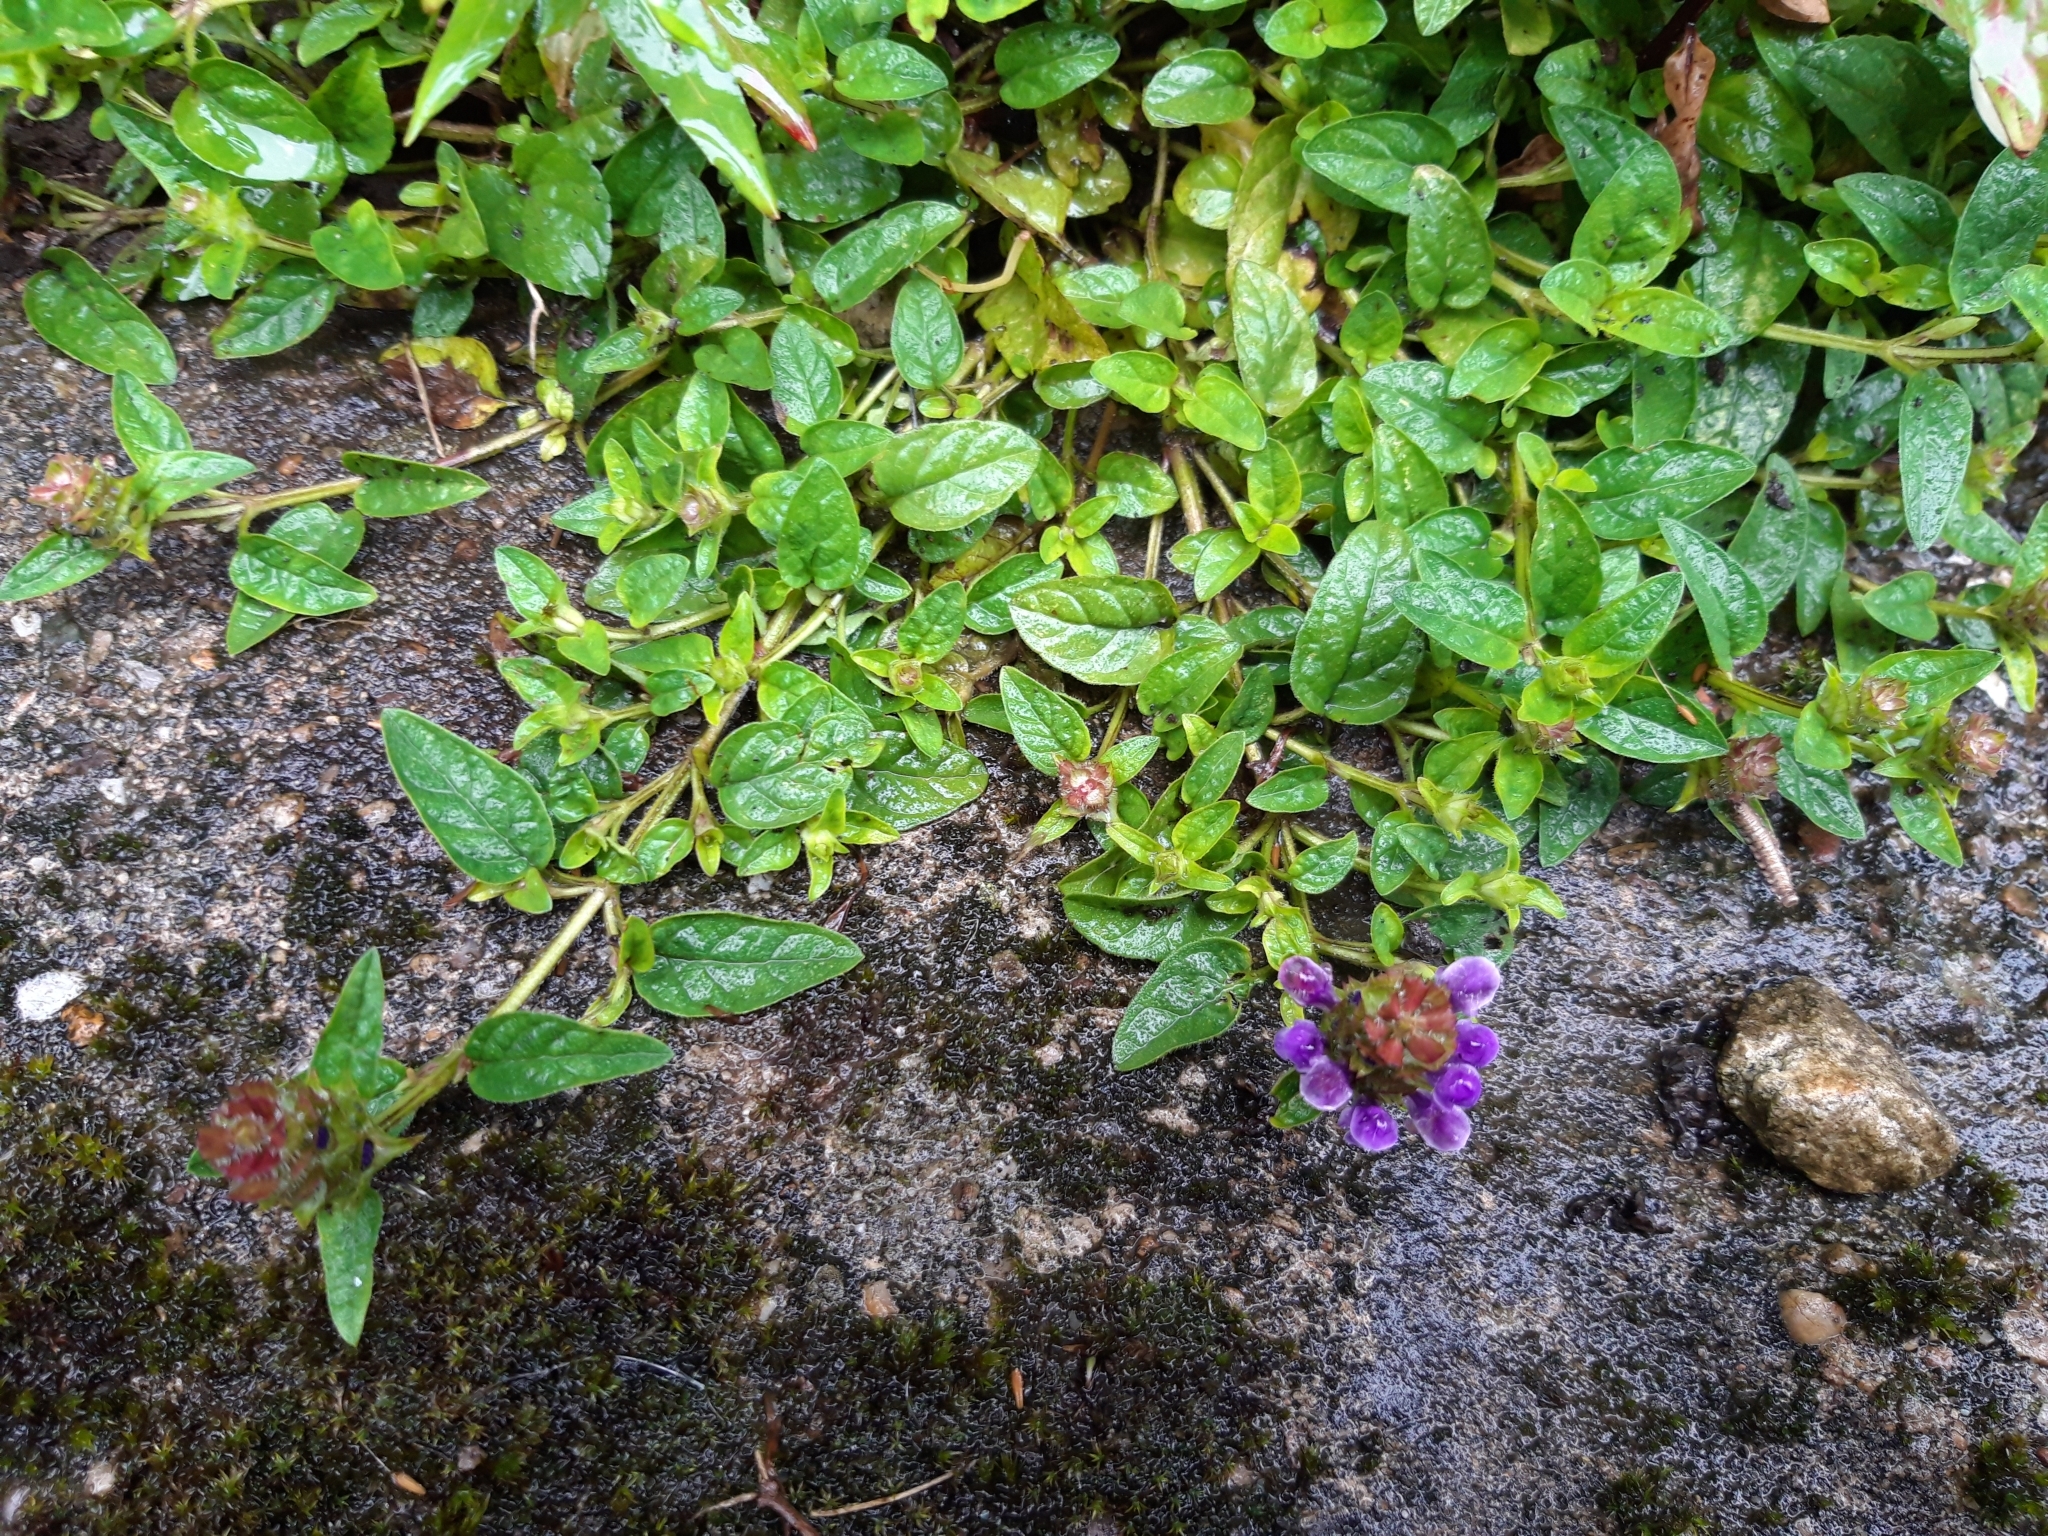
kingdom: Plantae
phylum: Tracheophyta
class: Magnoliopsida
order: Lamiales
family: Lamiaceae
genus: Prunella
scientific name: Prunella vulgaris
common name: Heal-all
